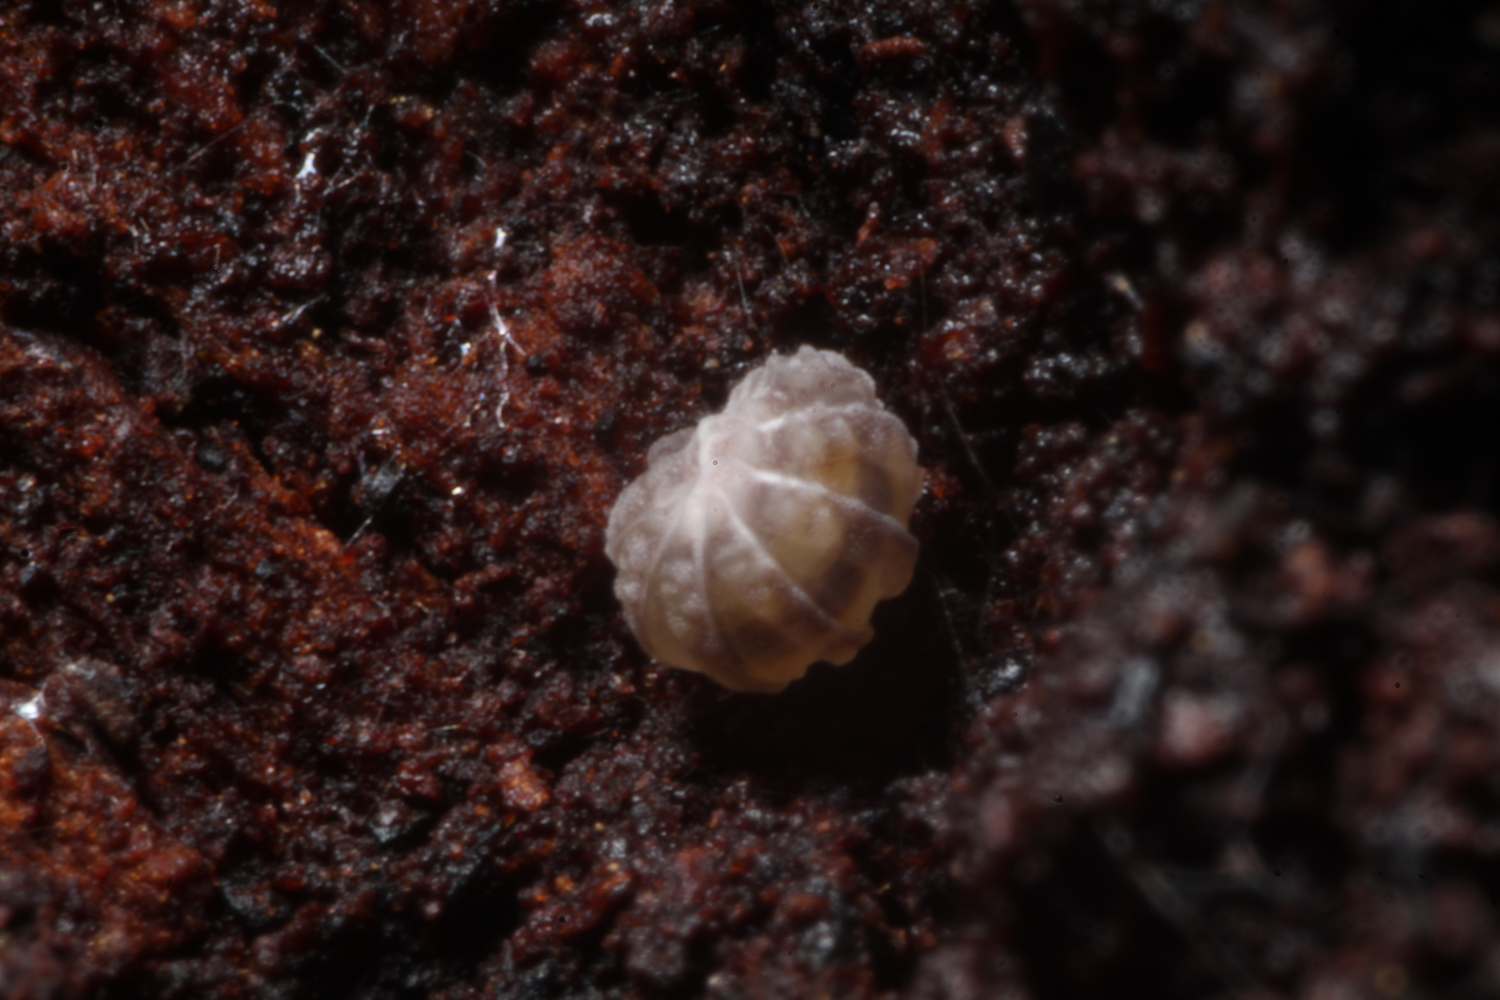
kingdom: Animalia
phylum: Arthropoda
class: Malacostraca
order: Isopoda
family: Armadillidae
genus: Pseudodiploexochus
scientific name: Pseudodiploexochus australiensis
